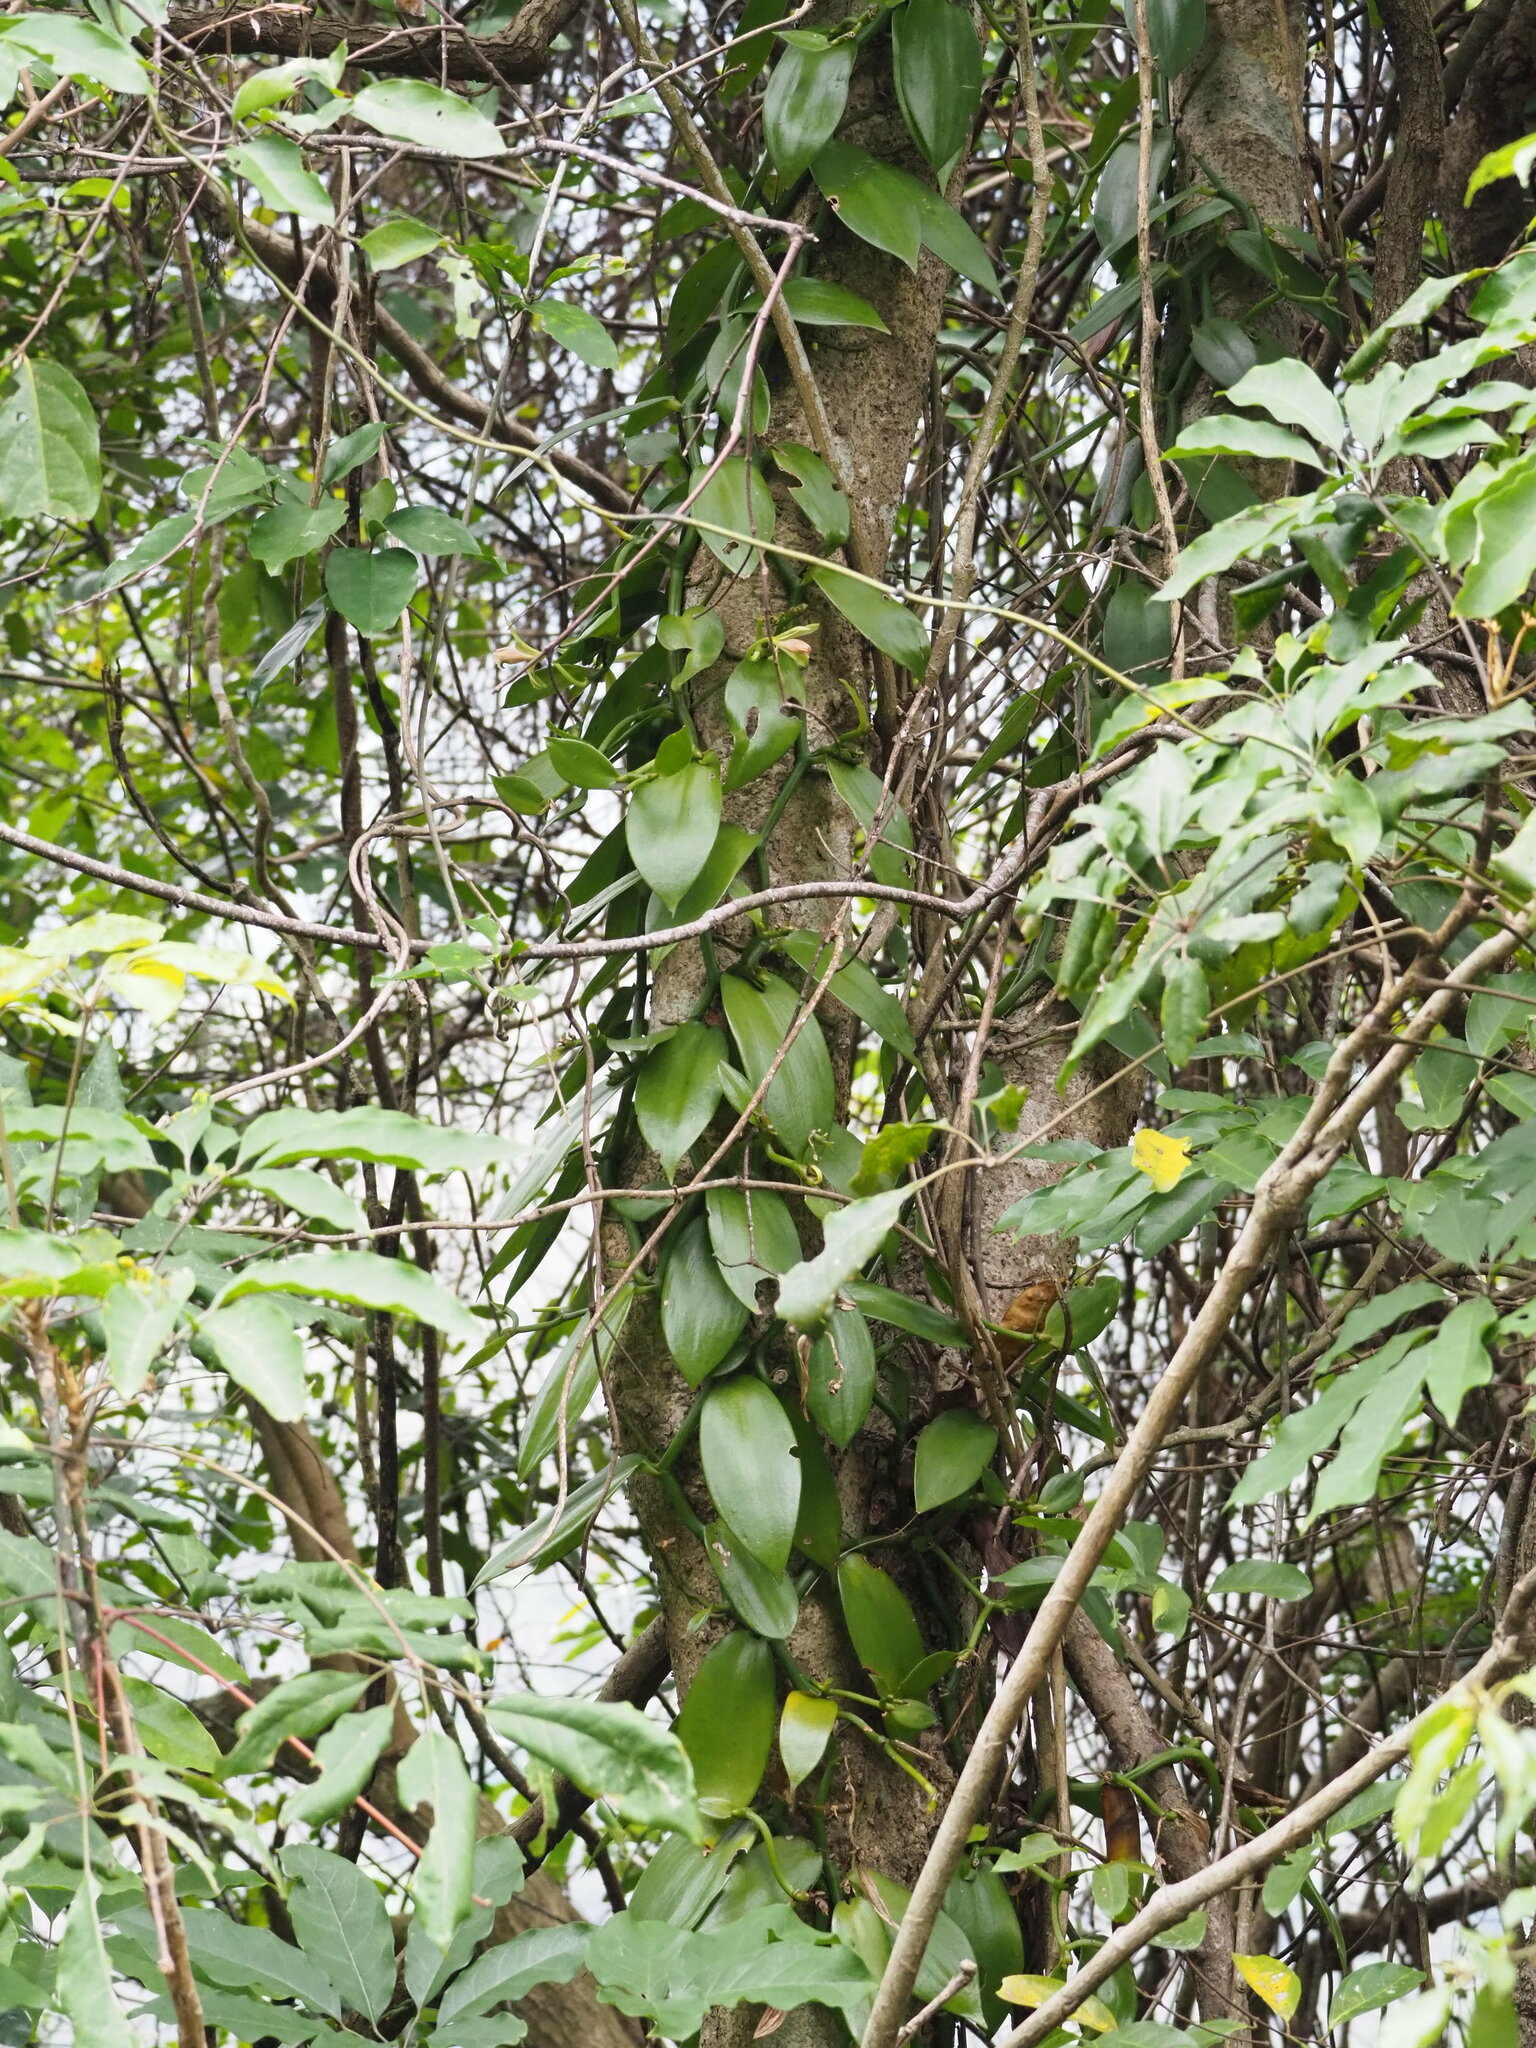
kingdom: Plantae
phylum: Tracheophyta
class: Liliopsida
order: Asparagales
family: Orchidaceae
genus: Vanilla
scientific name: Vanilla somae
